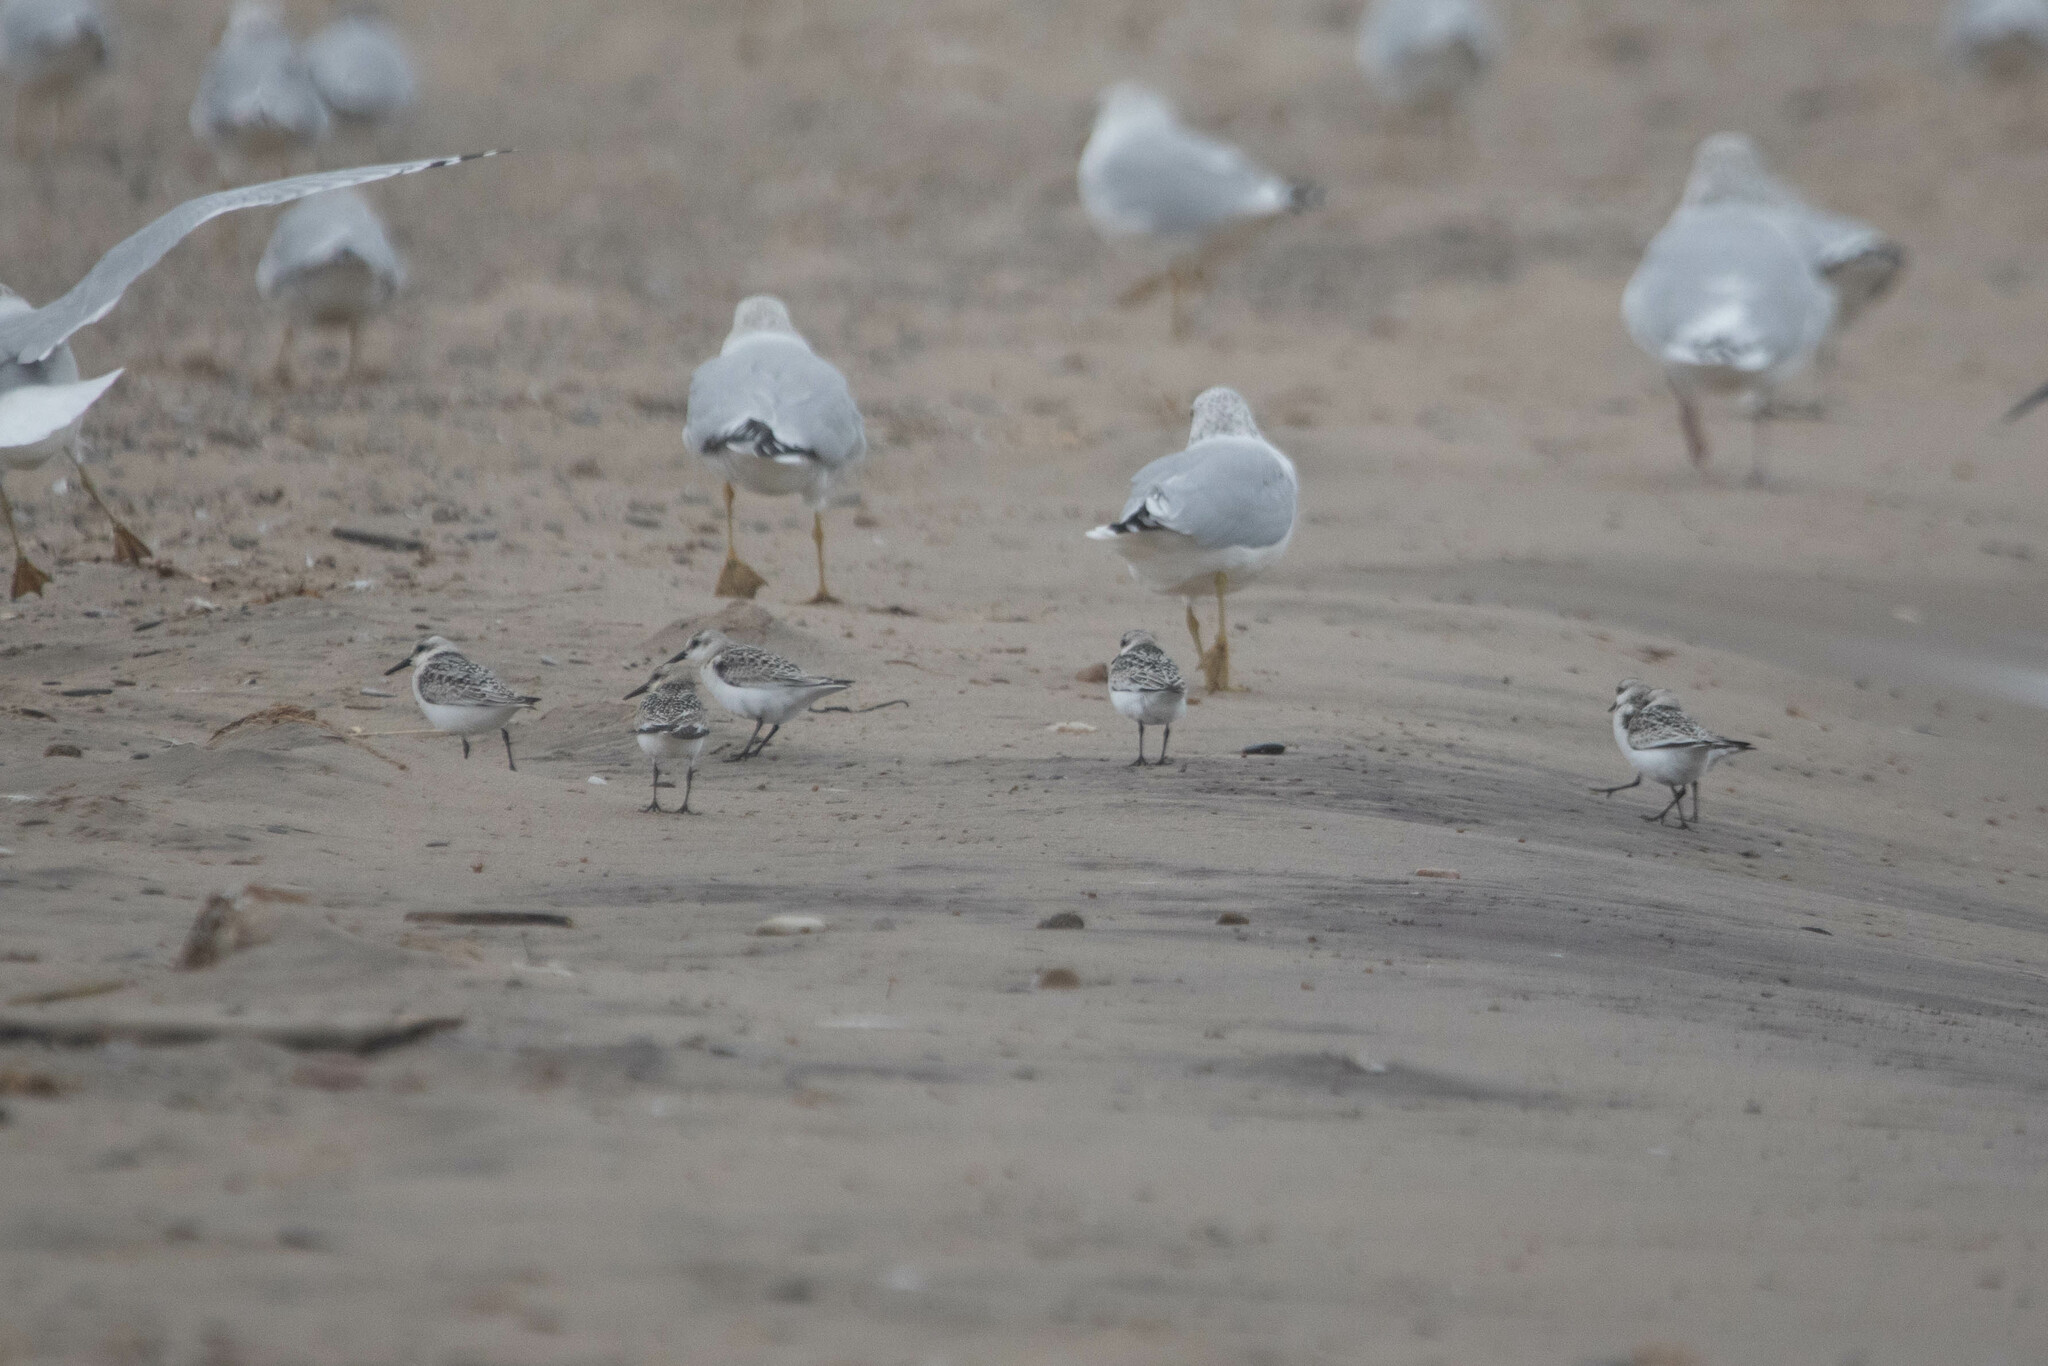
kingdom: Animalia
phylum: Chordata
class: Aves
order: Charadriiformes
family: Scolopacidae
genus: Calidris
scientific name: Calidris alba
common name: Sanderling
